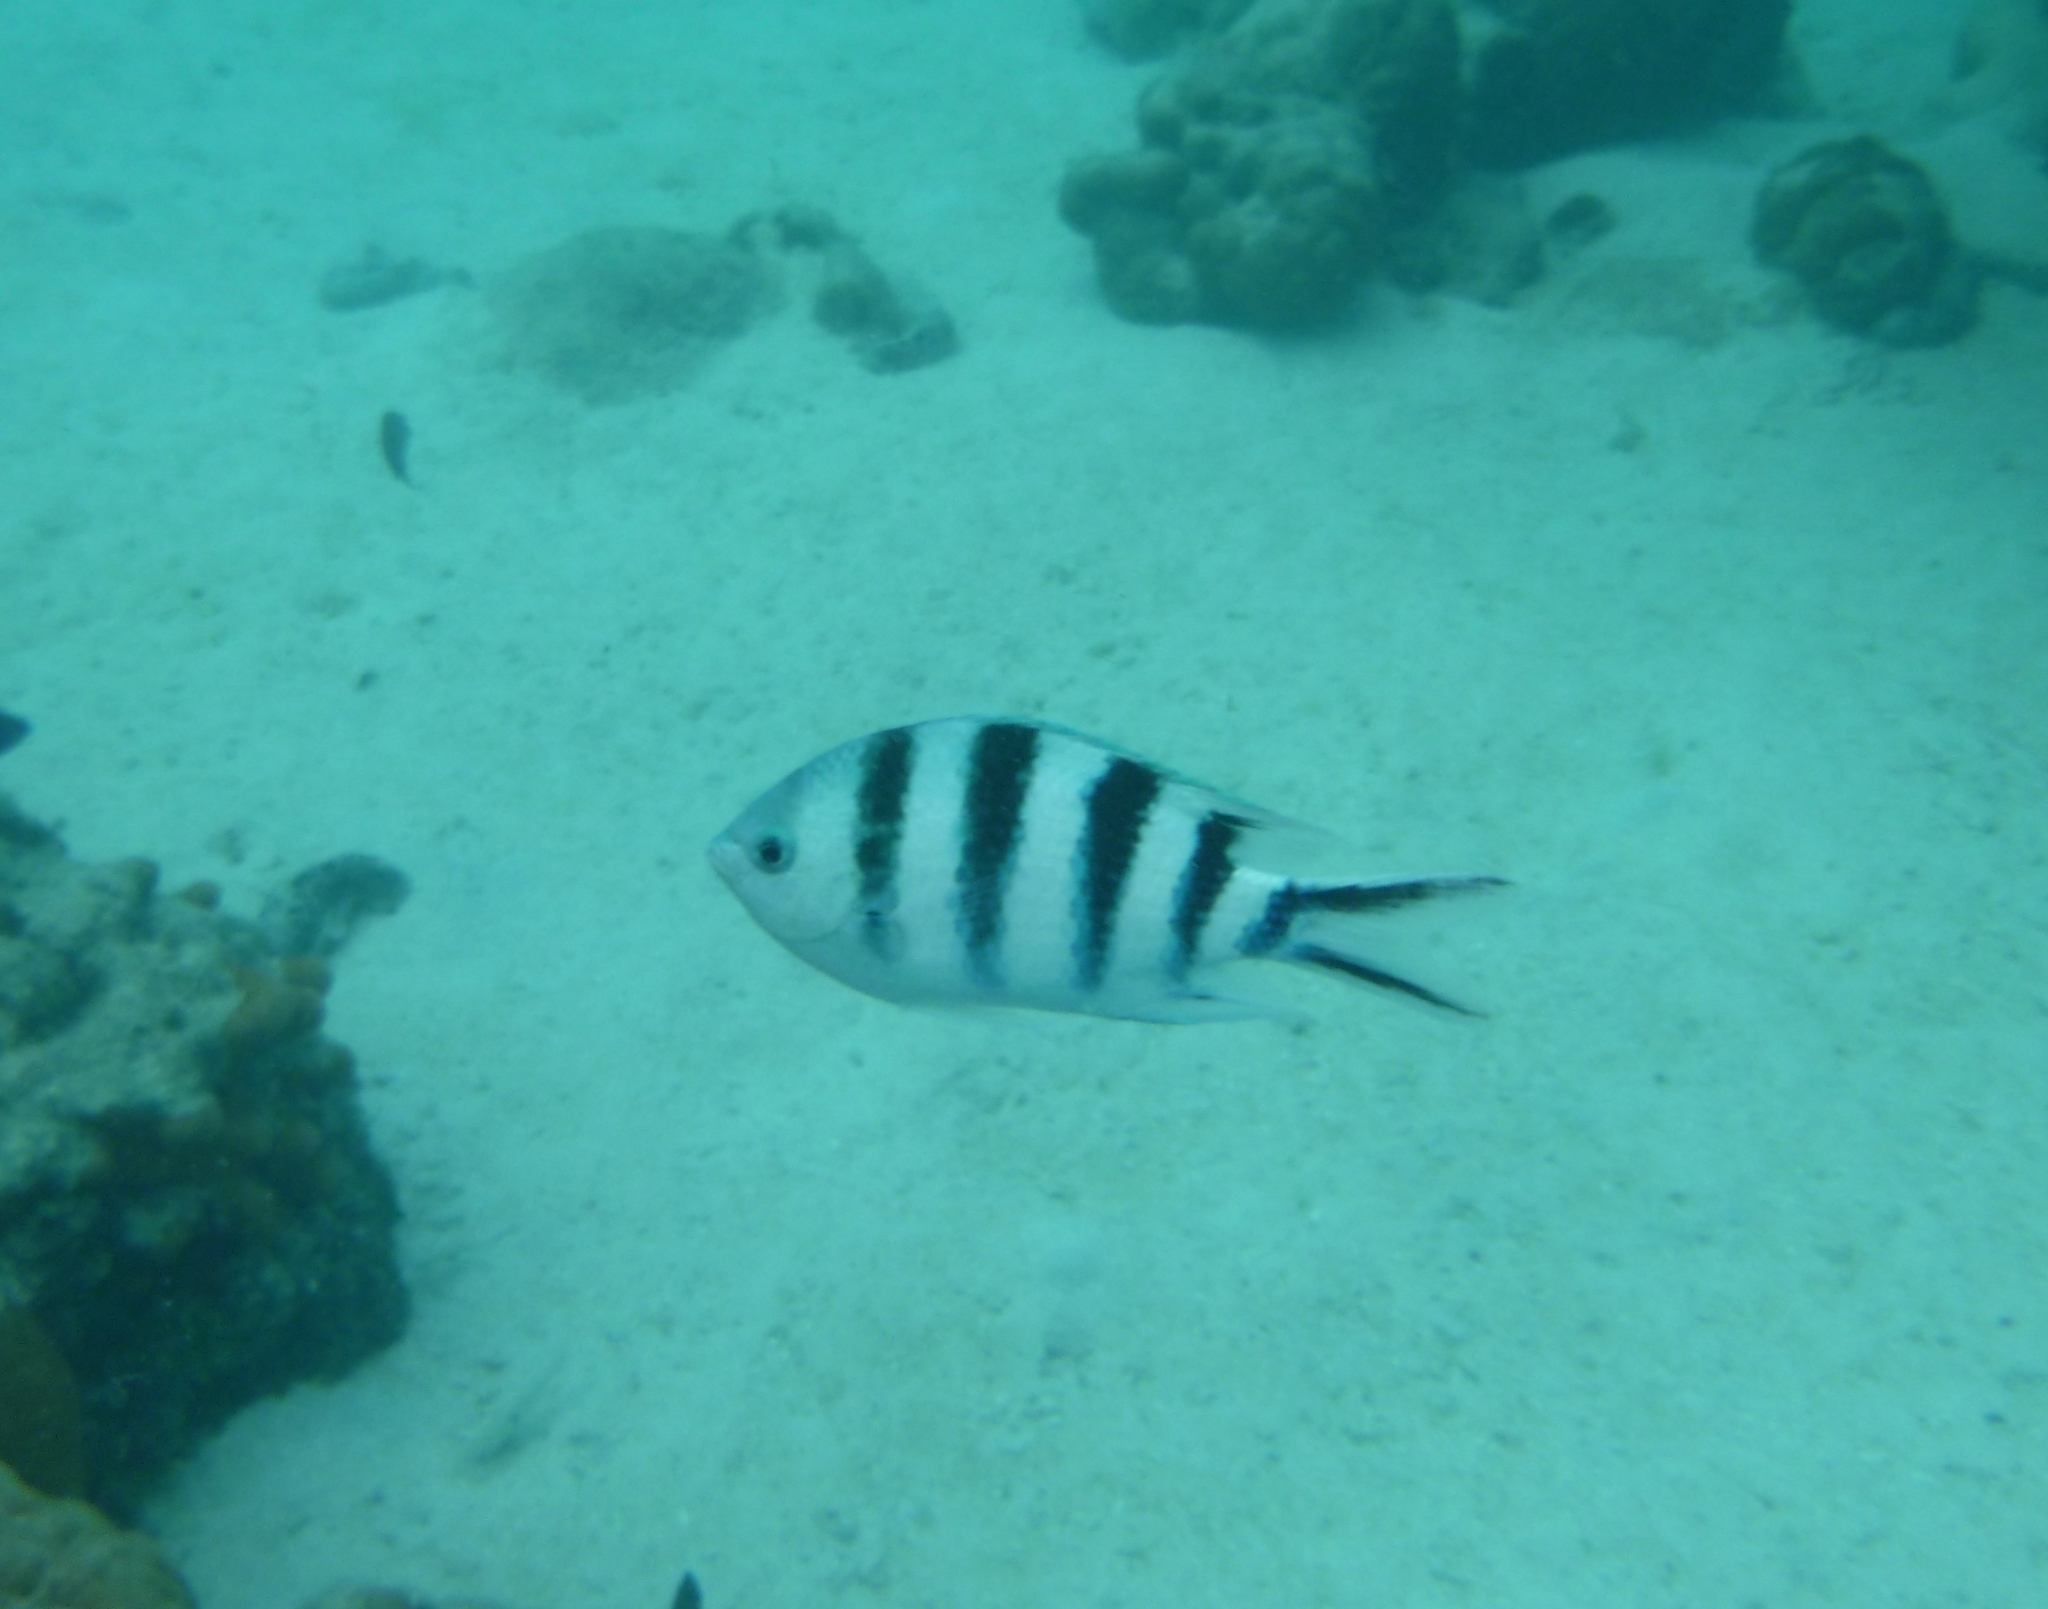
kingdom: Animalia
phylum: Chordata
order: Perciformes
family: Pomacentridae
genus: Abudefduf
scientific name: Abudefduf sexfasciatus
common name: Scissortail sergeant
